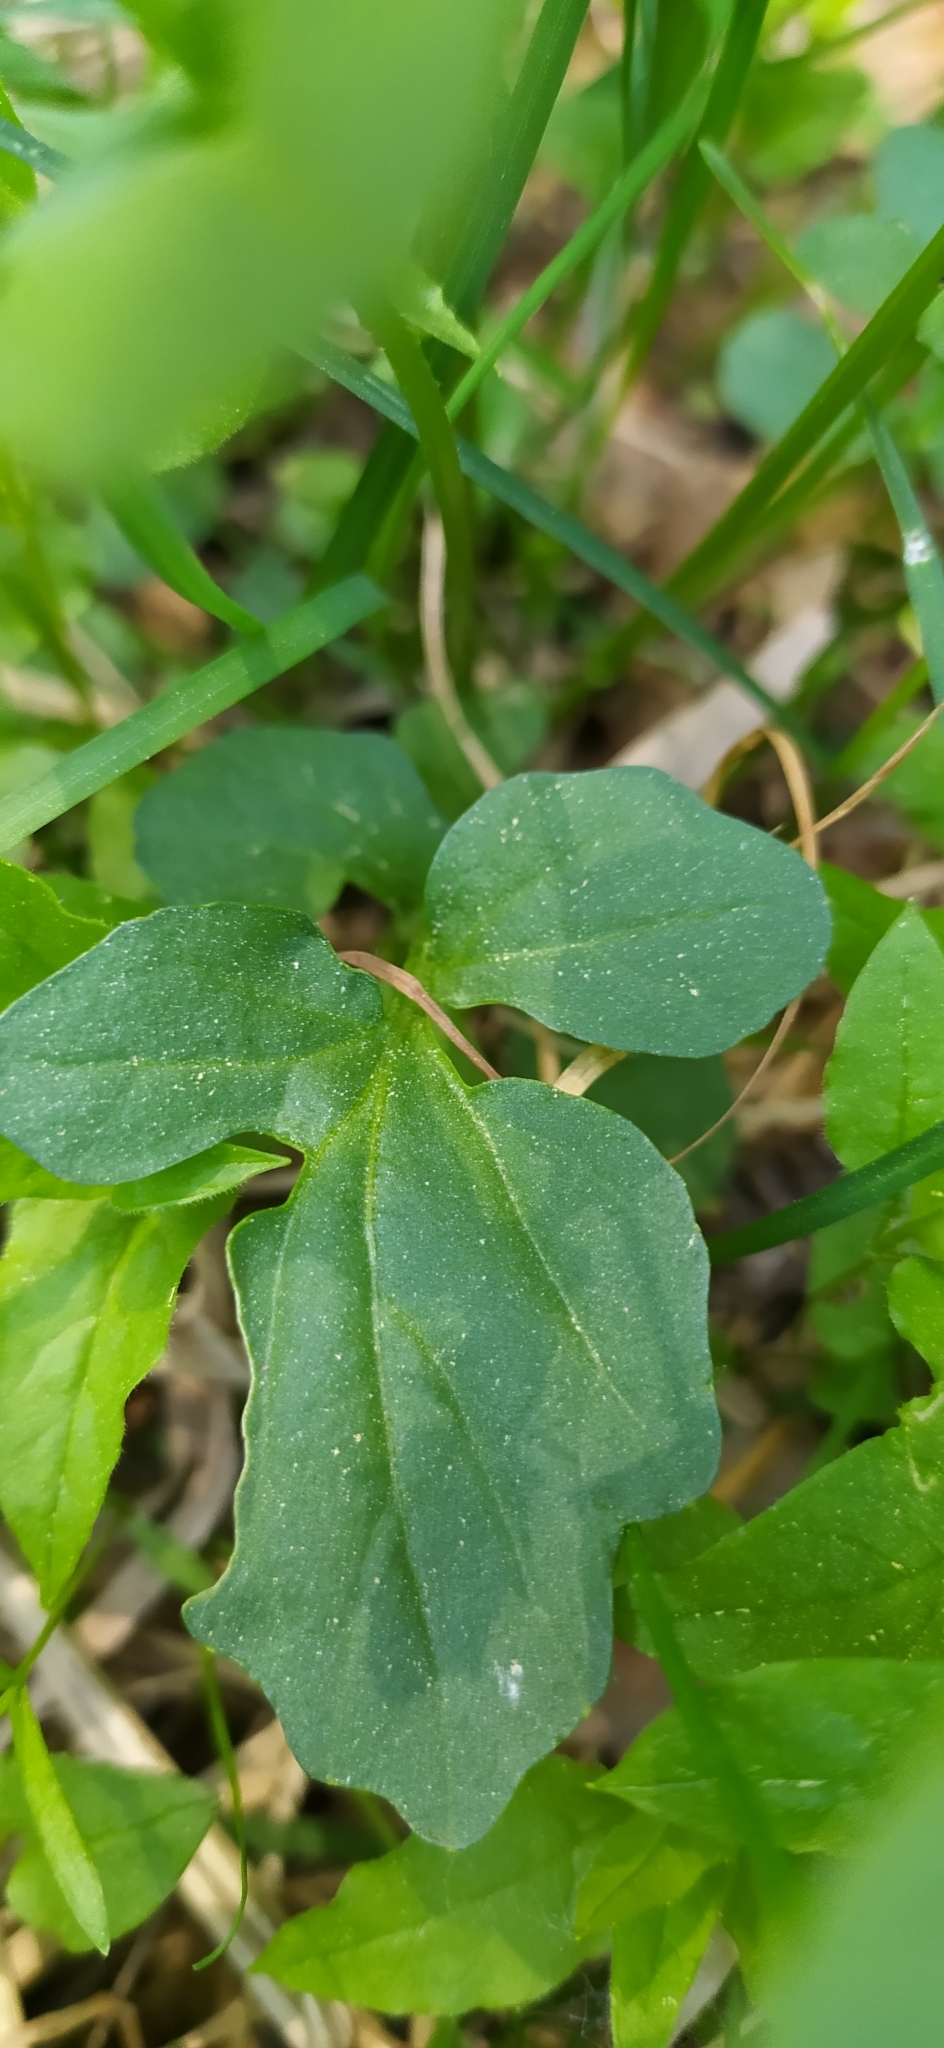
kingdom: Plantae
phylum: Tracheophyta
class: Magnoliopsida
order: Brassicales
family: Brassicaceae
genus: Barbarea
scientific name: Barbarea vulgaris
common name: Cressy-greens
